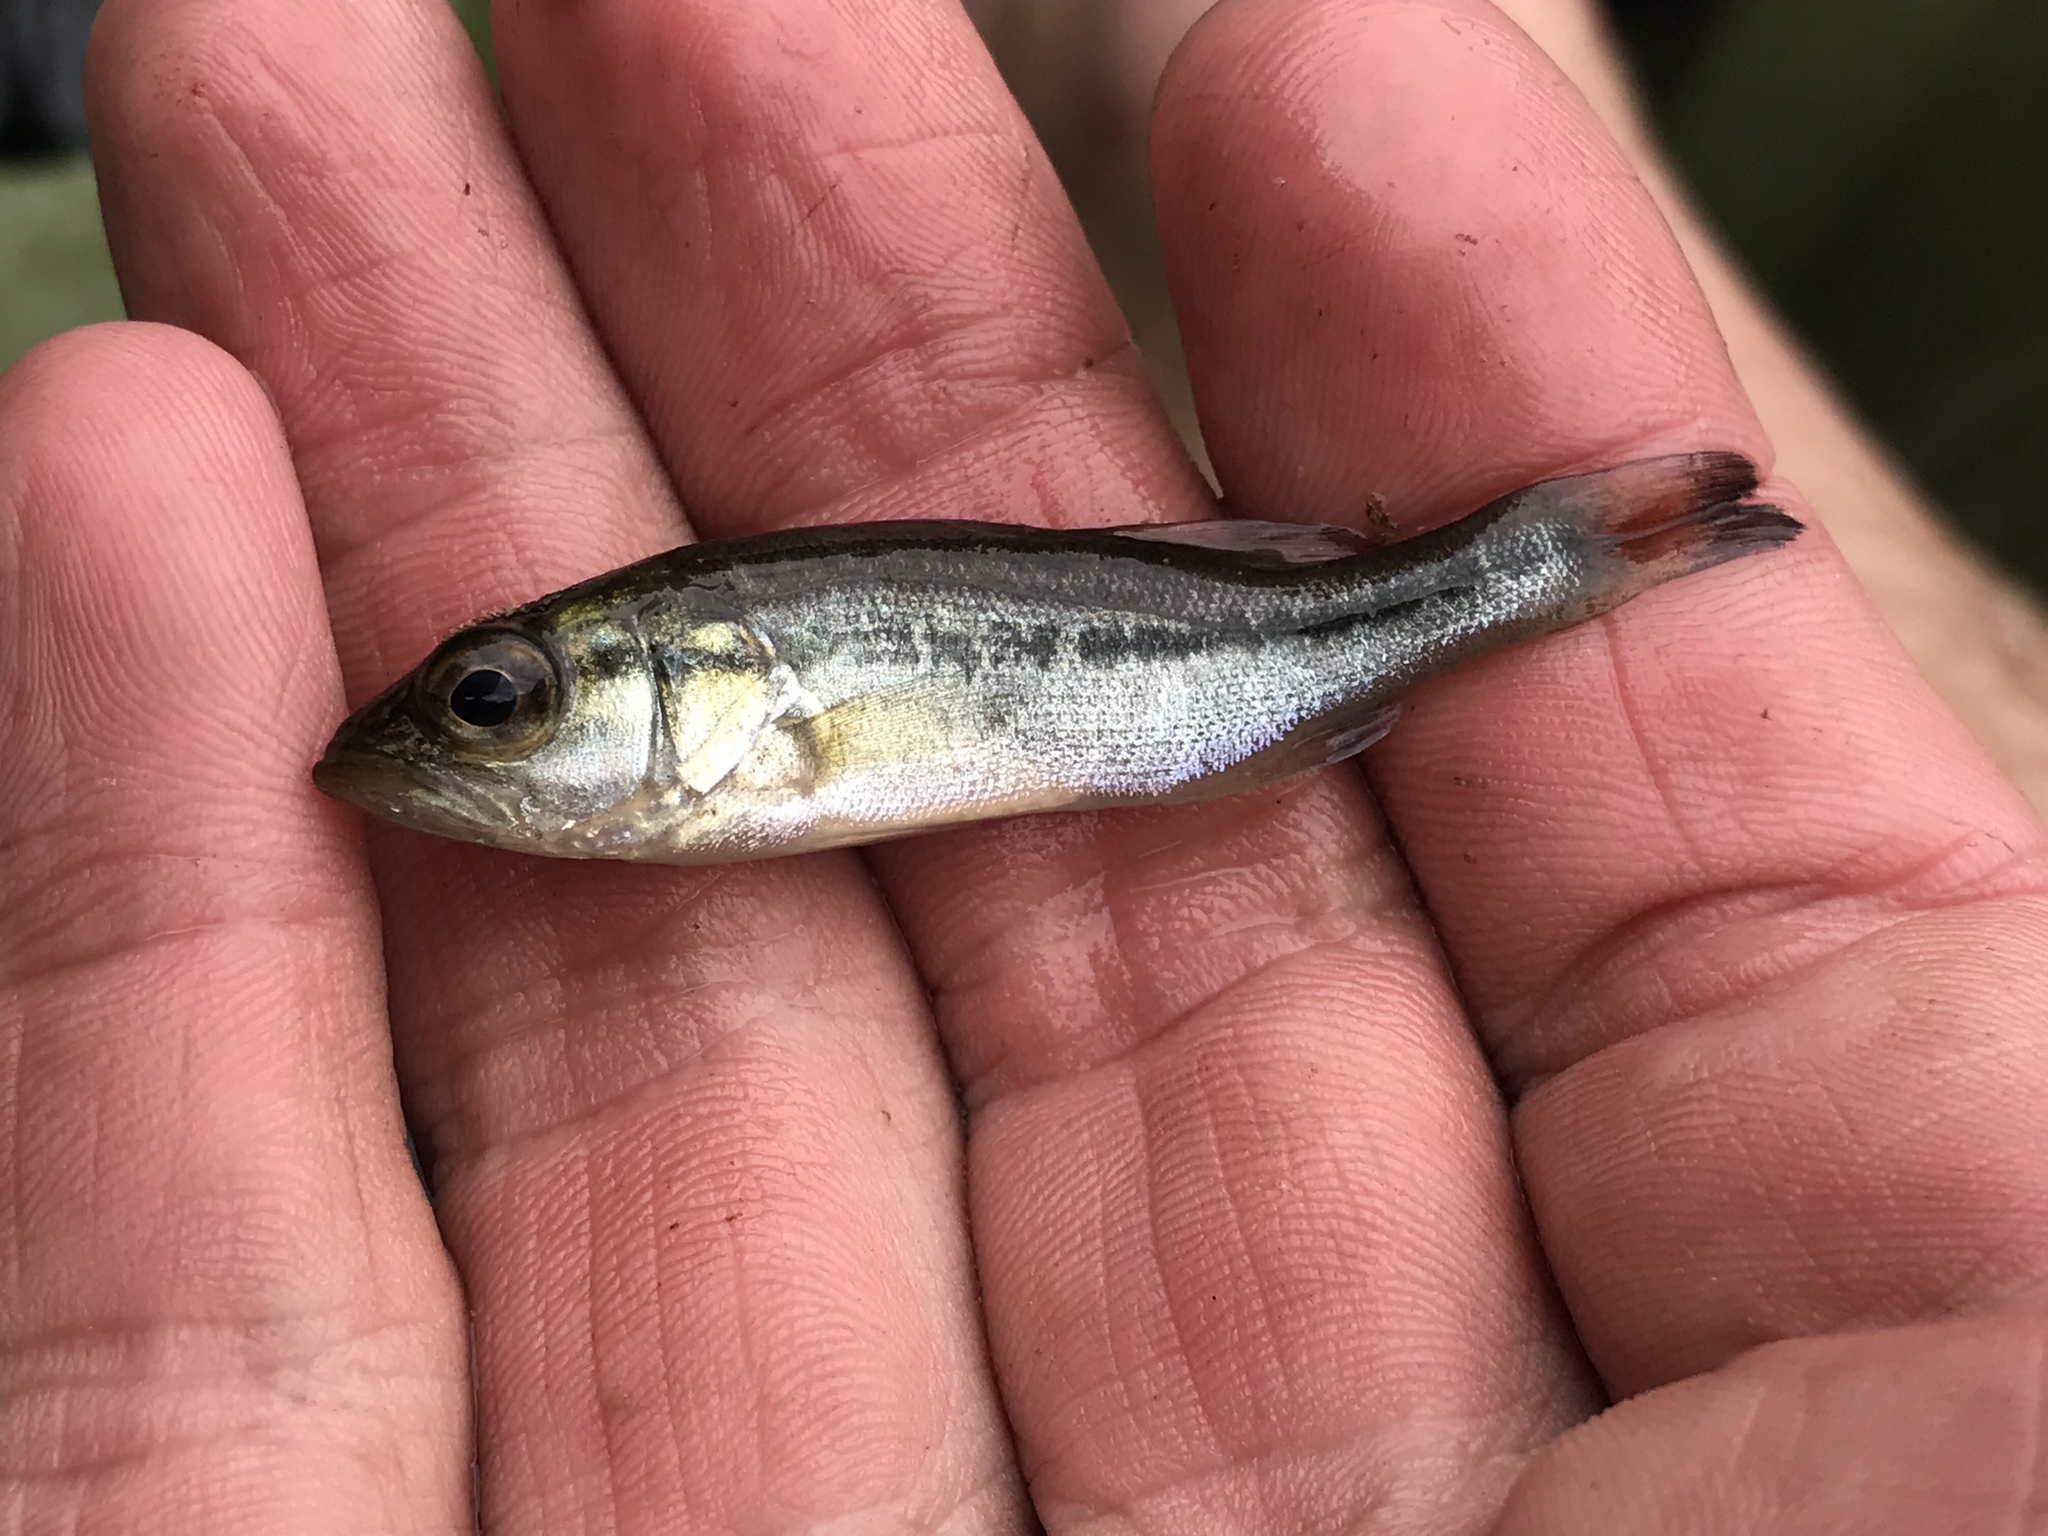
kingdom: Animalia
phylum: Chordata
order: Perciformes
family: Centrarchidae
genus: Micropterus
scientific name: Micropterus
